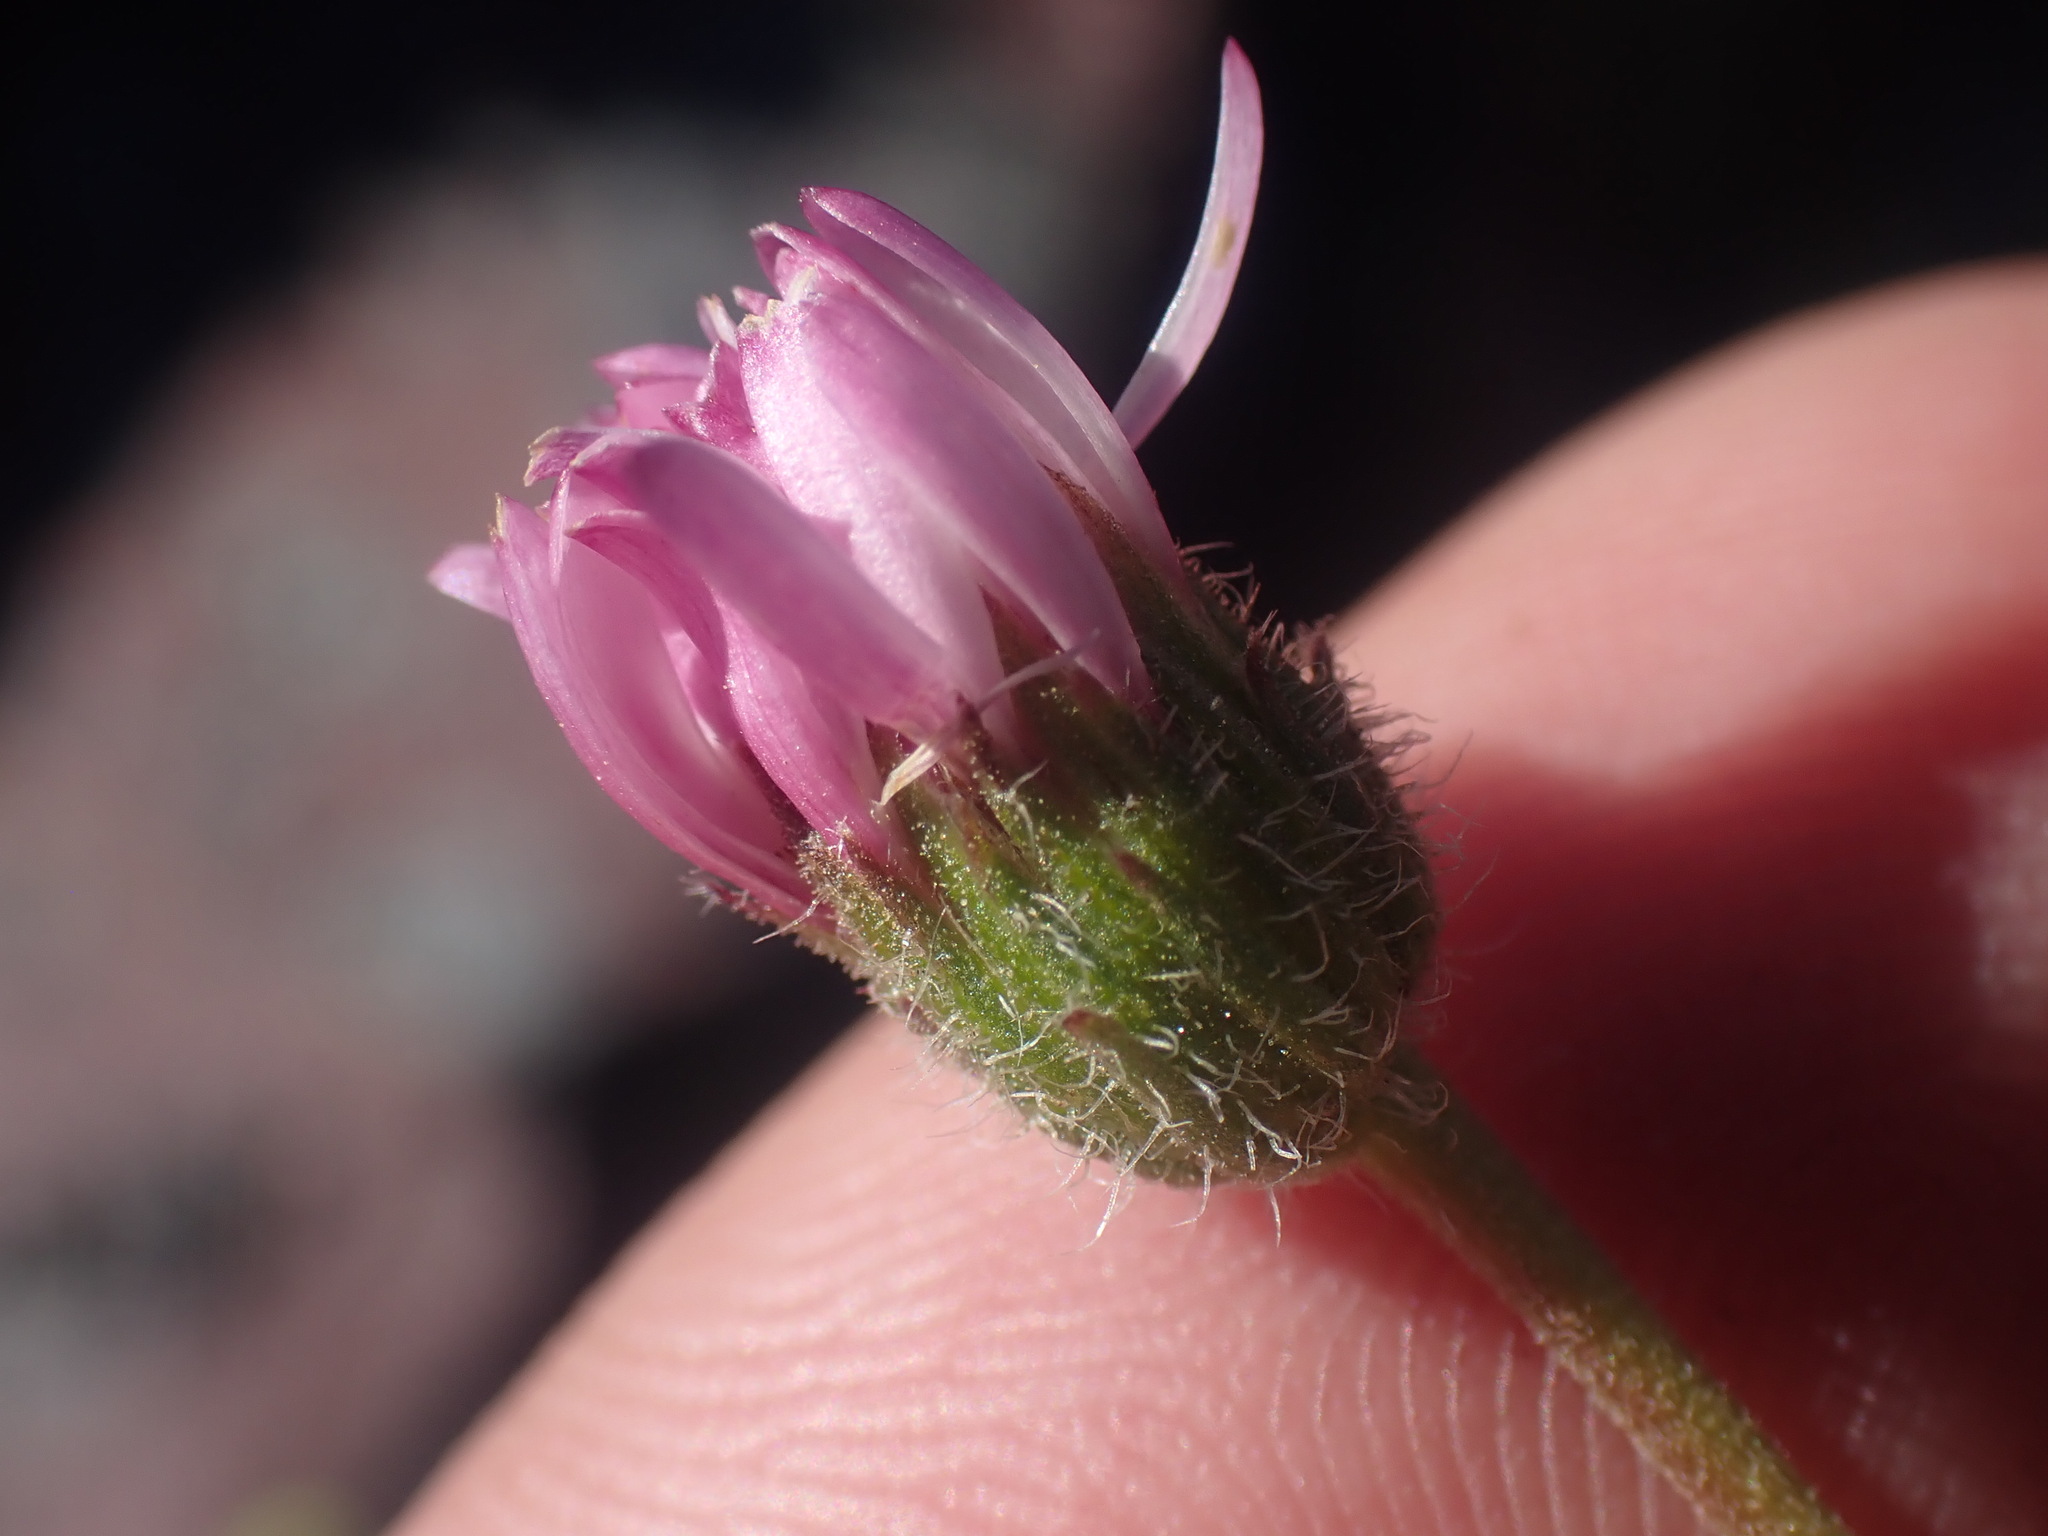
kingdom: Plantae
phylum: Tracheophyta
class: Magnoliopsida
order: Asterales
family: Asteraceae
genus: Erigeron
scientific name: Erigeron compositus
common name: Dwarf mountain fleabane
